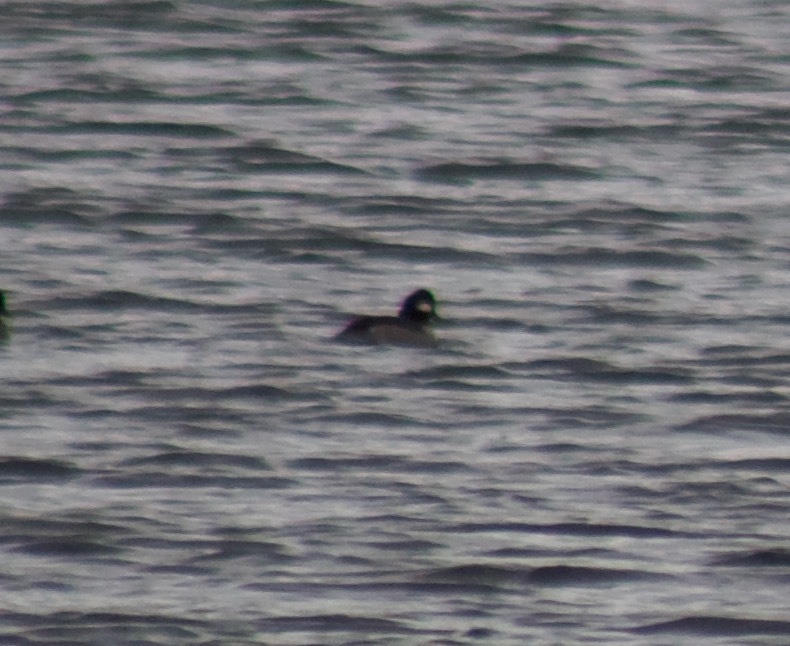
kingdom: Animalia
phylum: Chordata
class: Aves
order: Anseriformes
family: Anatidae
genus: Bucephala
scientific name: Bucephala albeola
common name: Bufflehead
